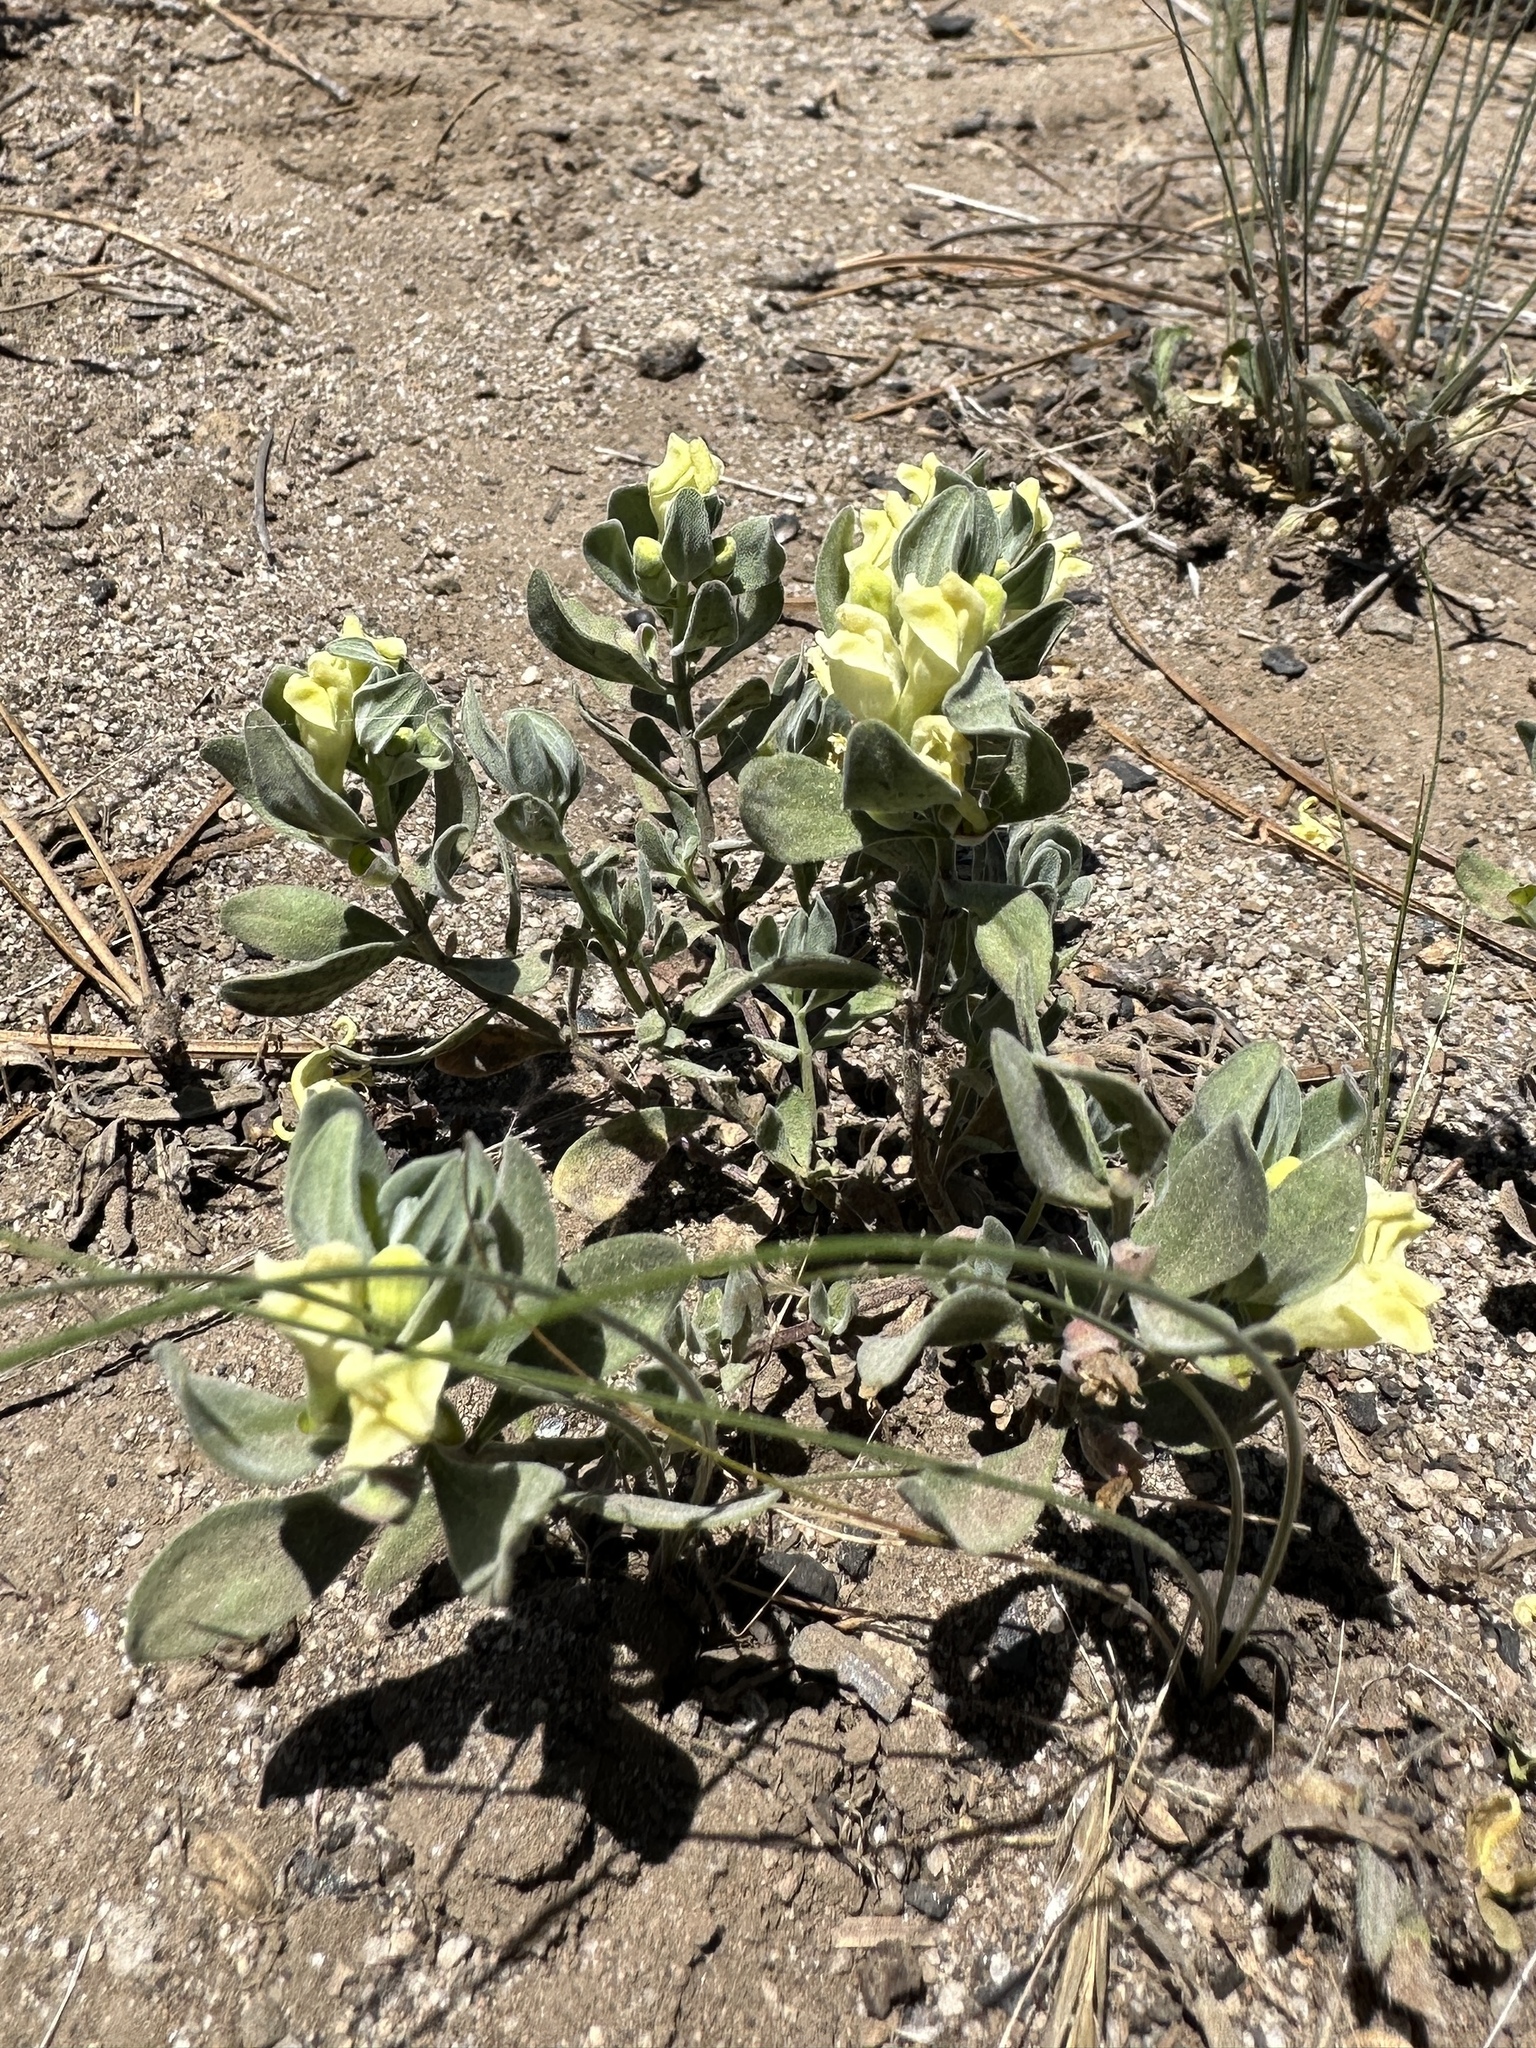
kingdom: Plantae
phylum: Tracheophyta
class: Magnoliopsida
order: Lamiales
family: Lamiaceae
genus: Scutellaria
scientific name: Scutellaria nana
